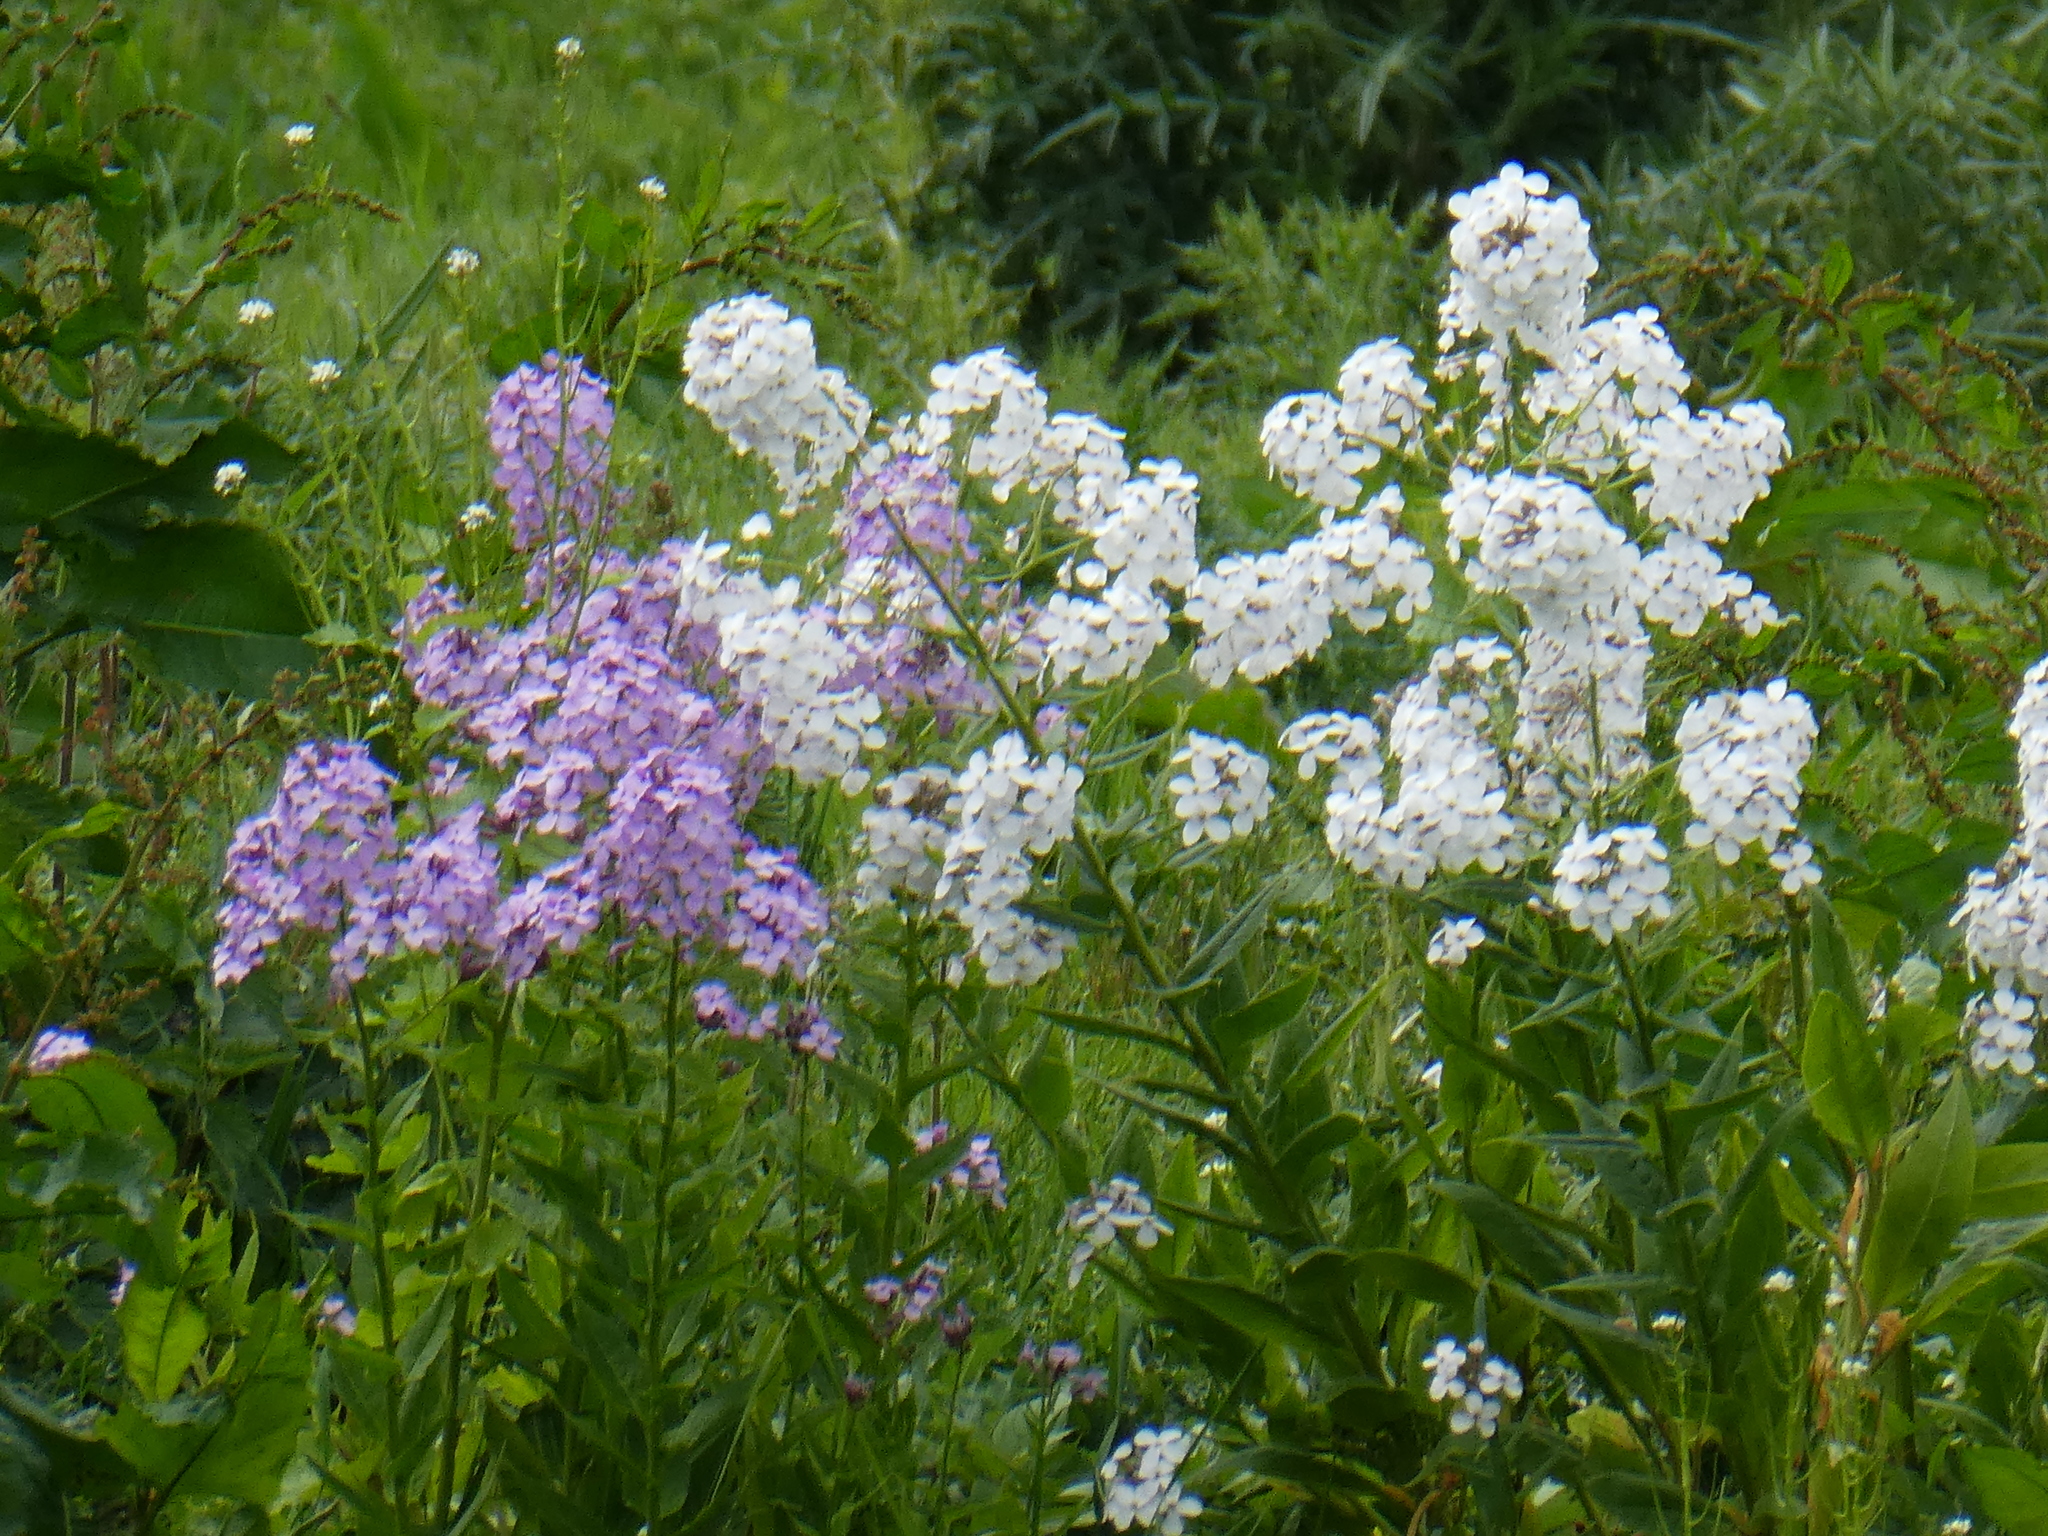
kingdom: Plantae
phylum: Tracheophyta
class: Magnoliopsida
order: Brassicales
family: Brassicaceae
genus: Hesperis
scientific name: Hesperis matronalis
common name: Dame's-violet
